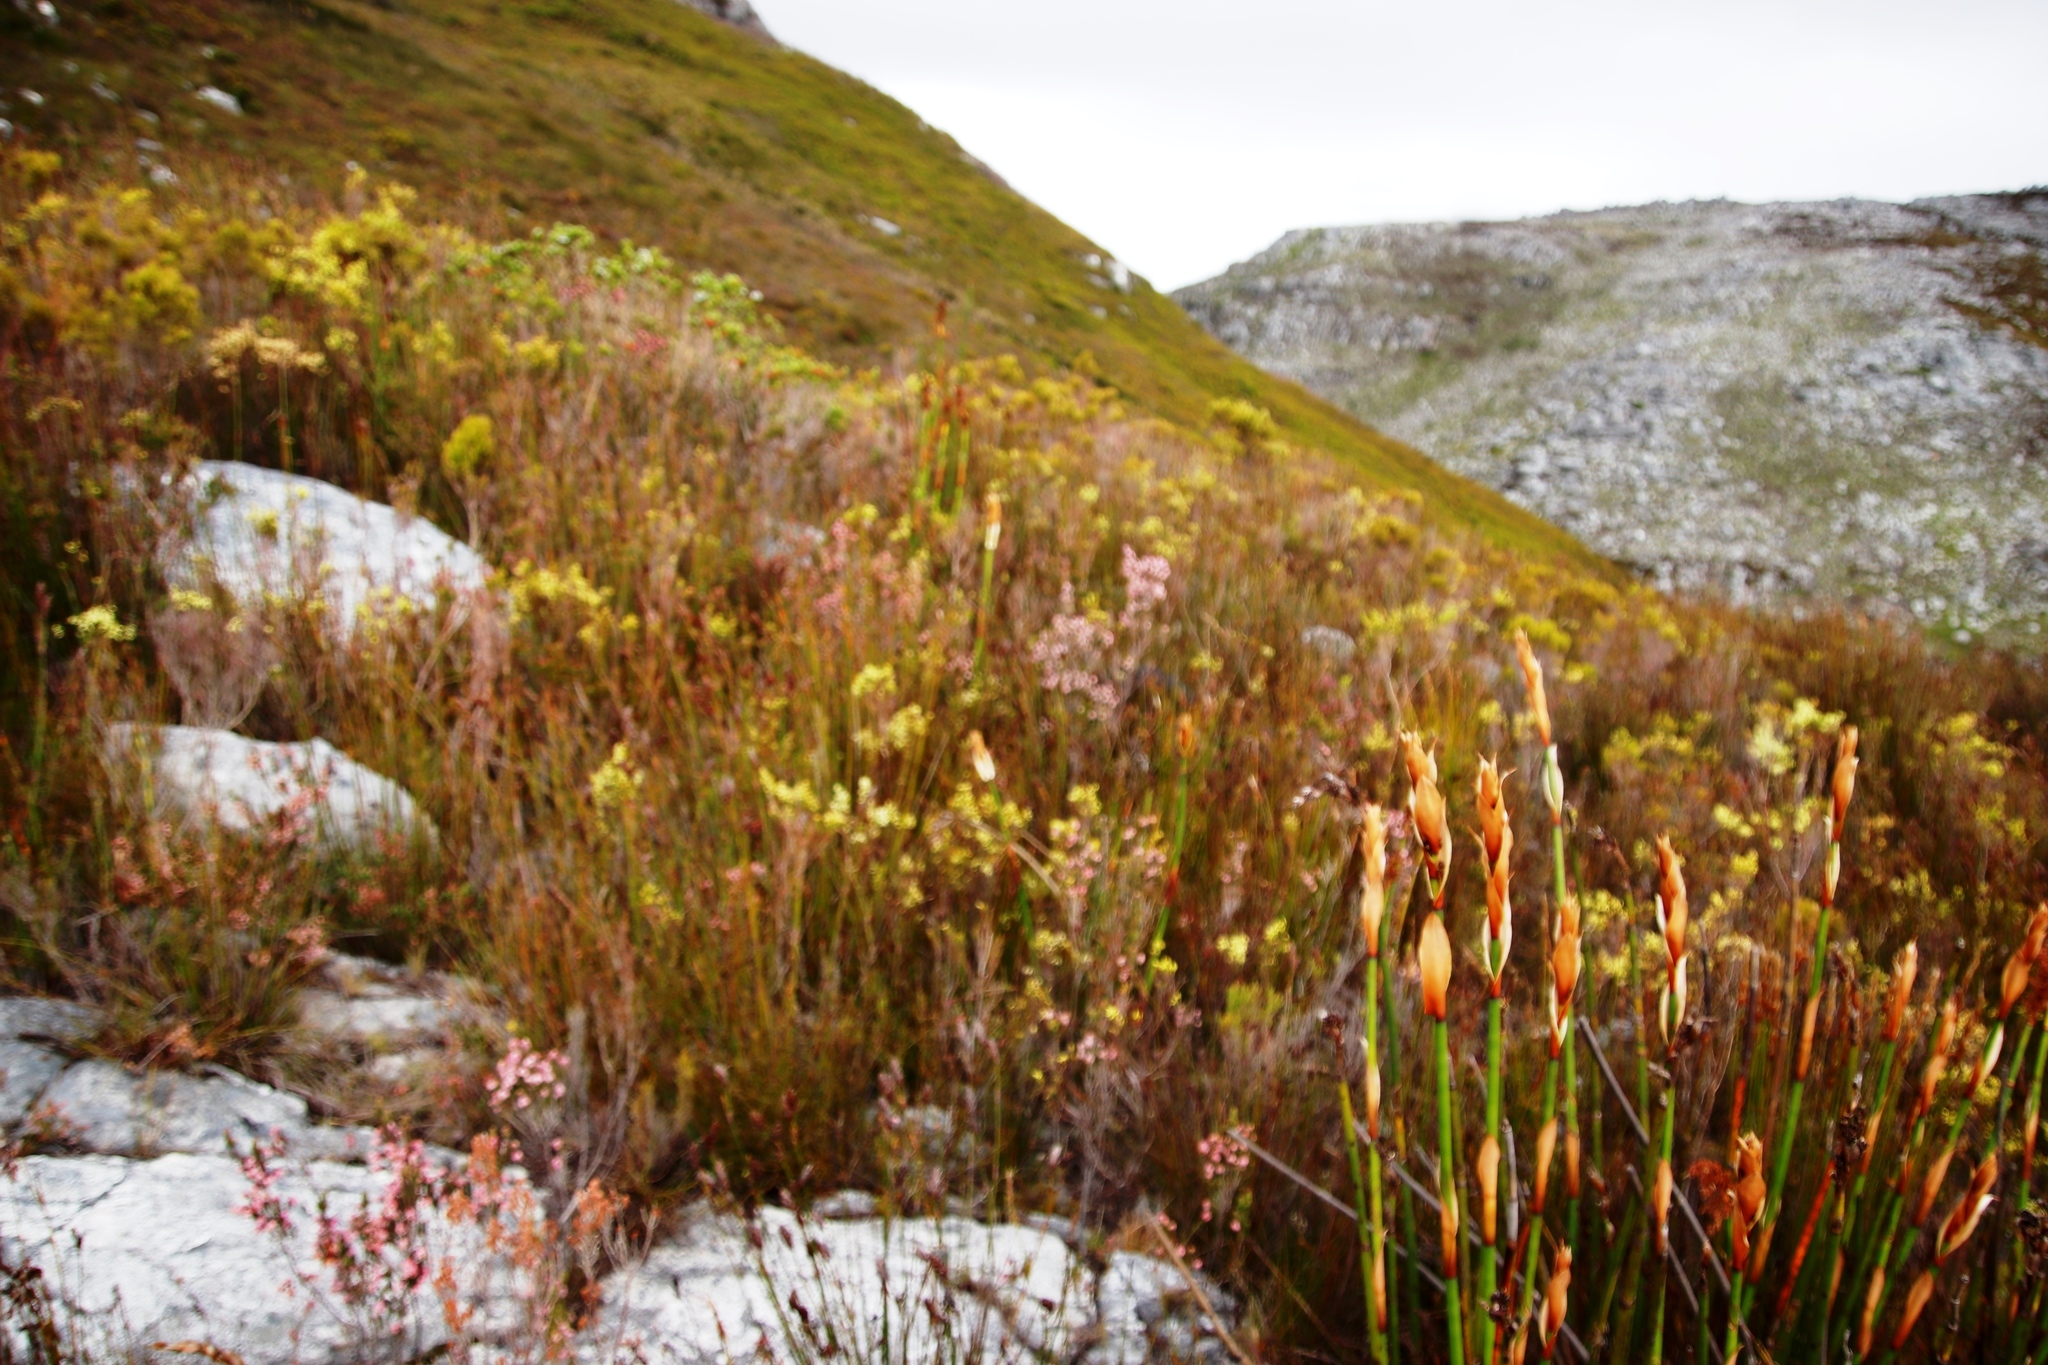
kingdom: Plantae
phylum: Tracheophyta
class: Magnoliopsida
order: Ericales
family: Ericaceae
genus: Erica
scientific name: Erica tegulifolia
